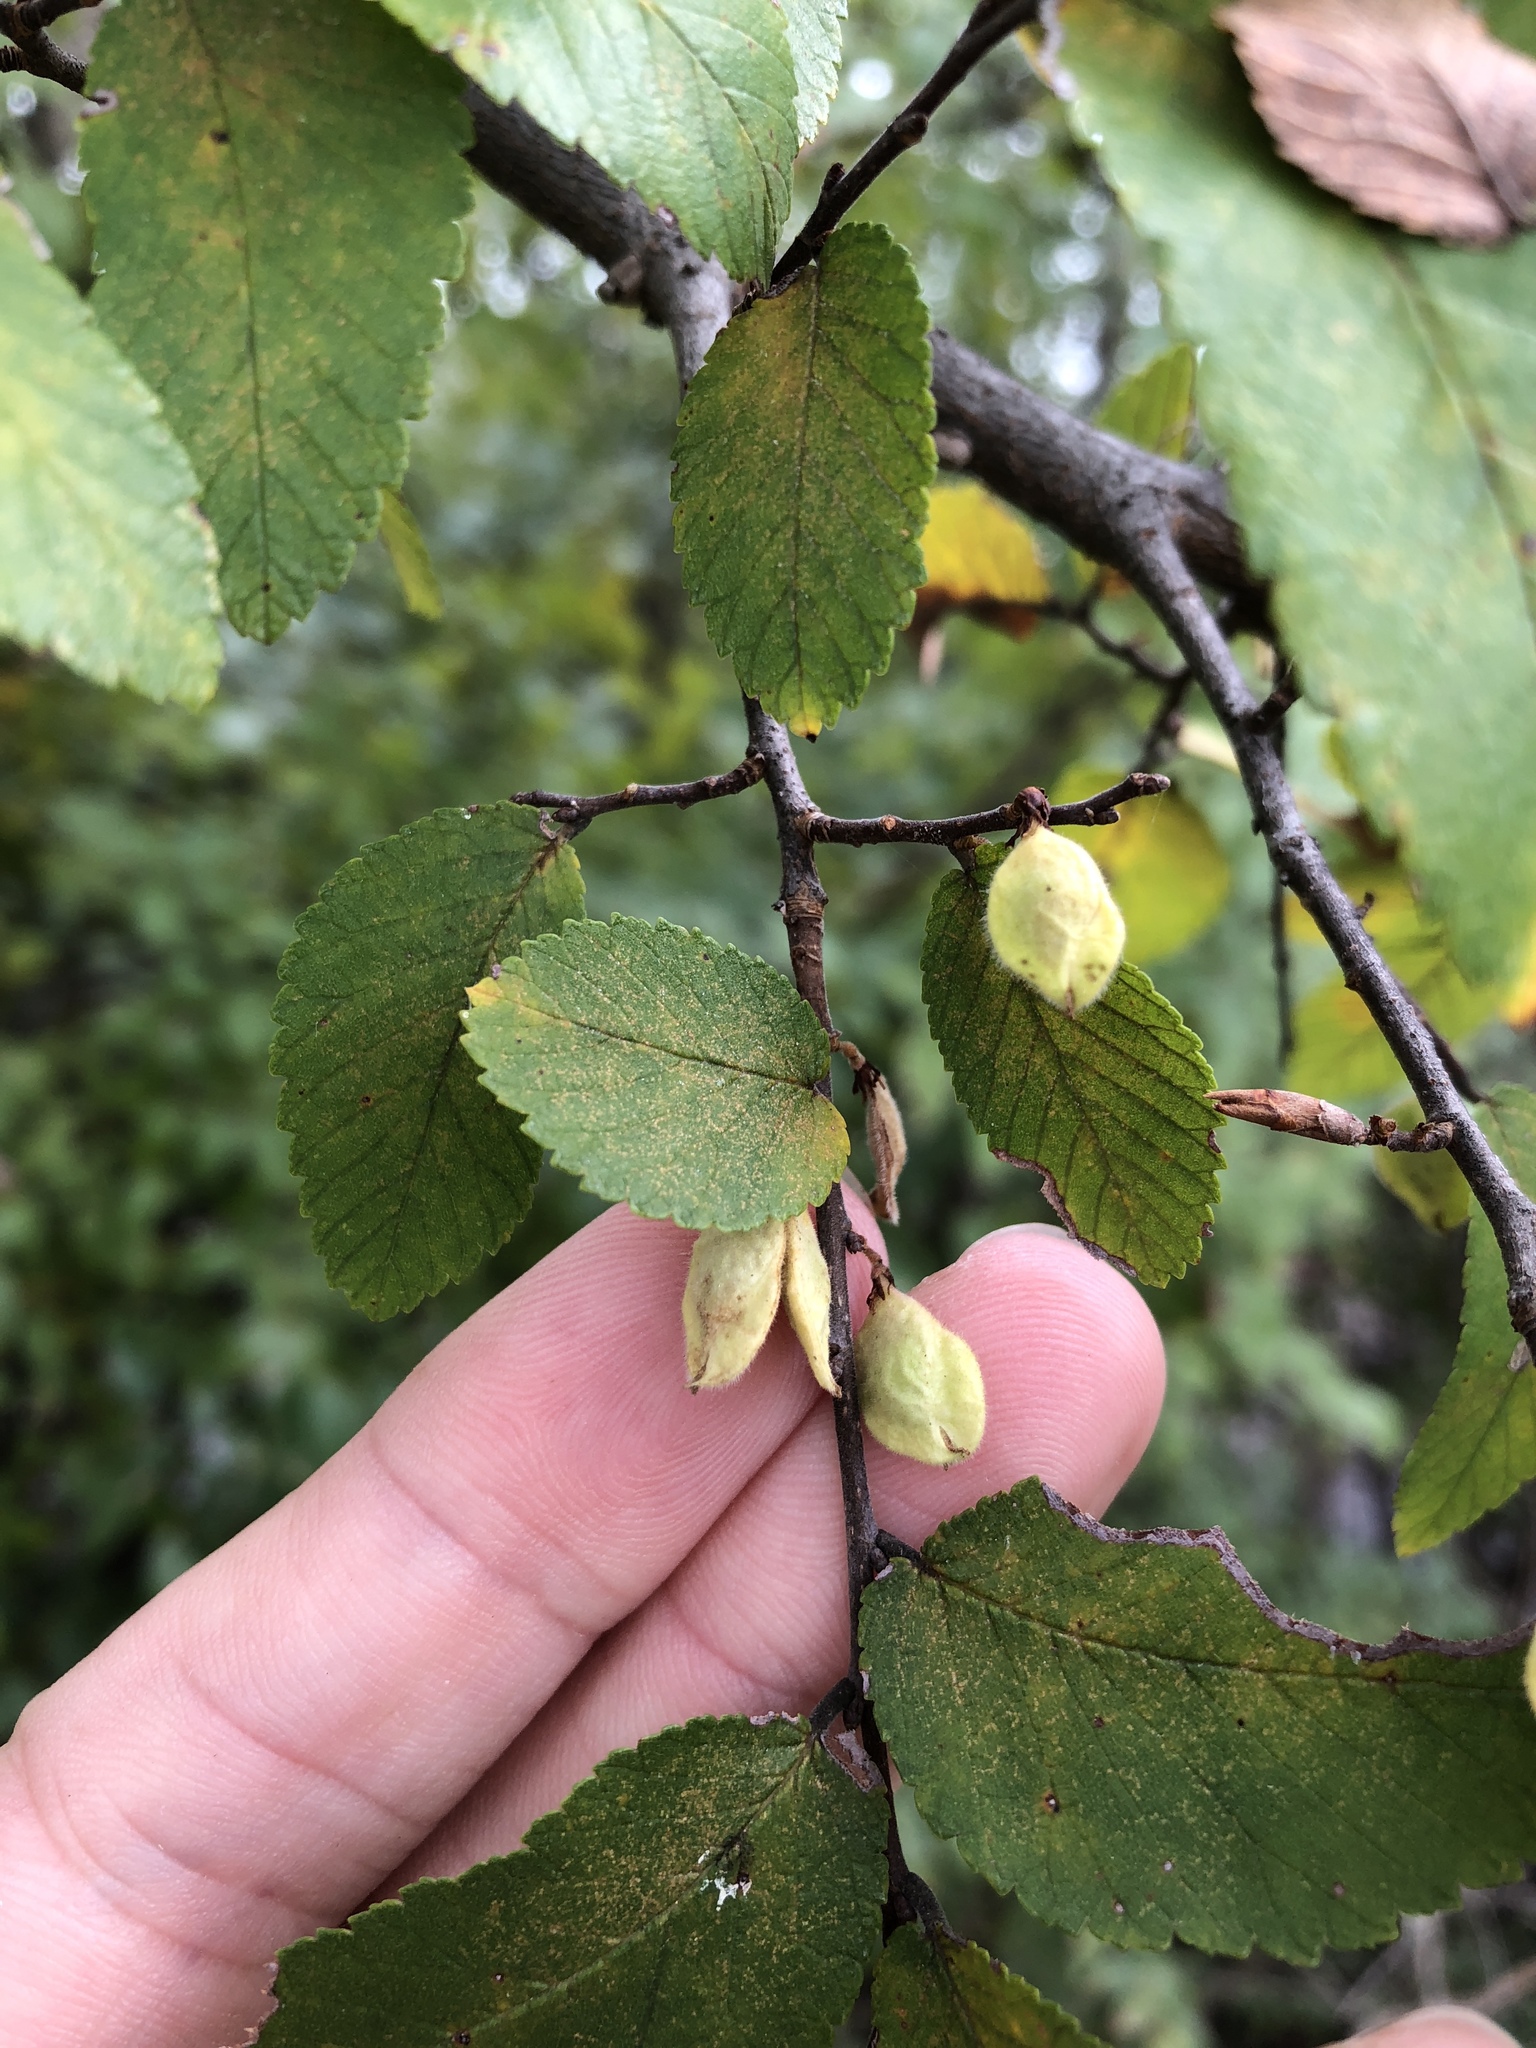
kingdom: Plantae
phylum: Tracheophyta
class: Magnoliopsida
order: Rosales
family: Ulmaceae
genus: Ulmus
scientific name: Ulmus crassifolia
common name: Basket elm
